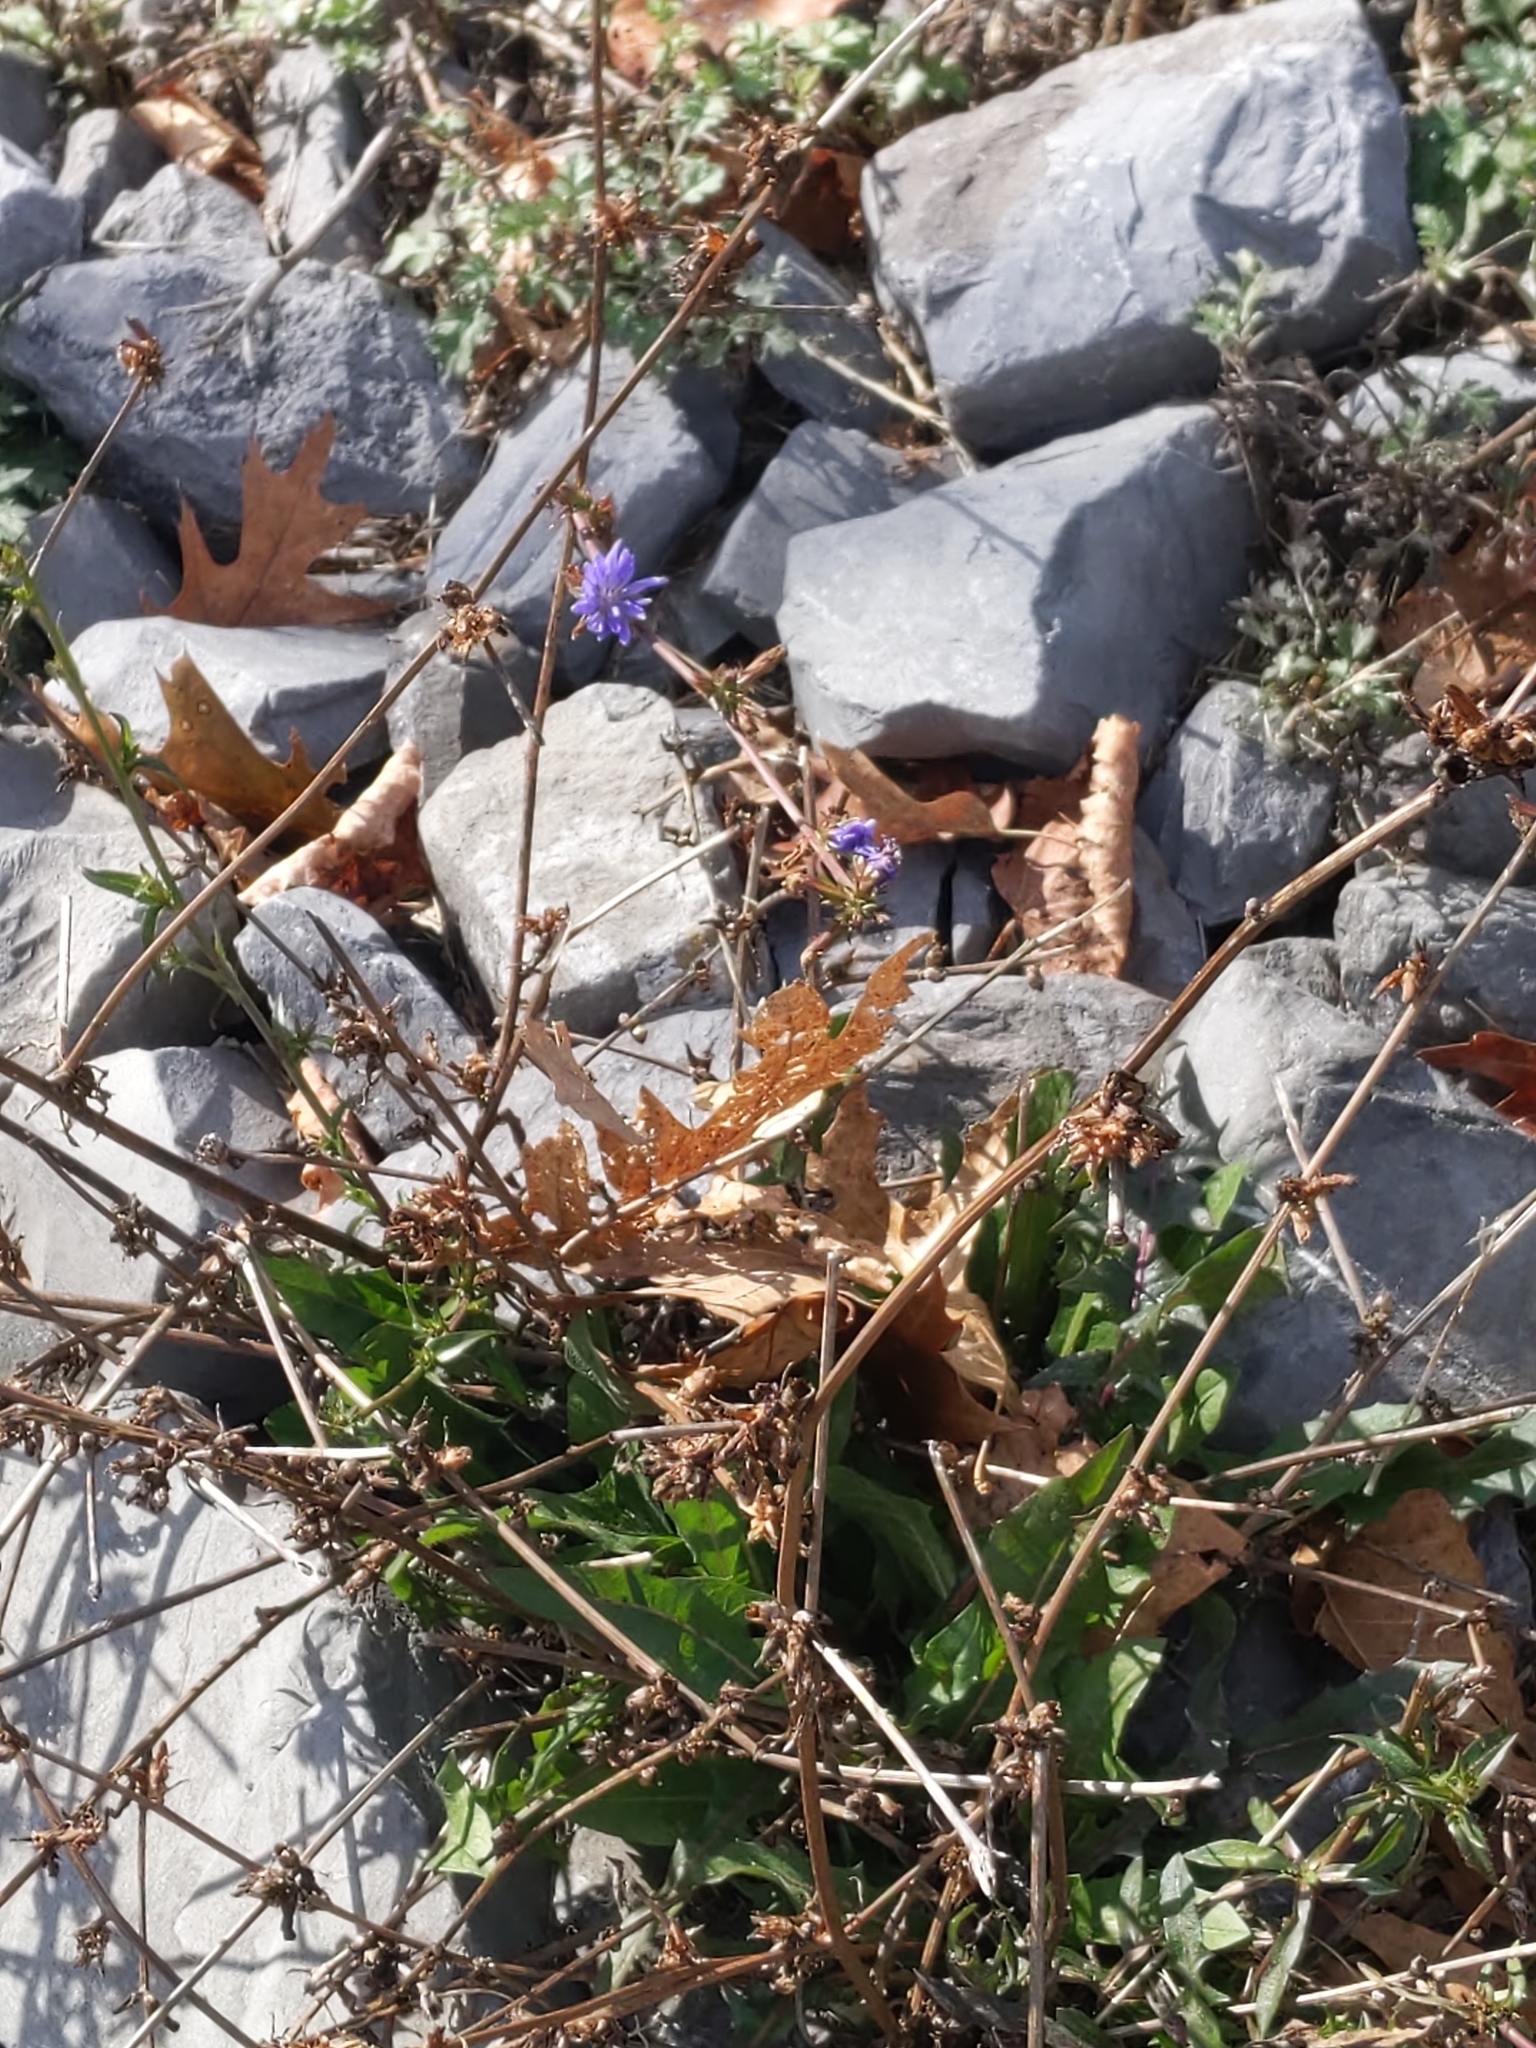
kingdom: Plantae
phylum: Tracheophyta
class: Magnoliopsida
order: Asterales
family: Asteraceae
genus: Cichorium
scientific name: Cichorium intybus
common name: Chicory
